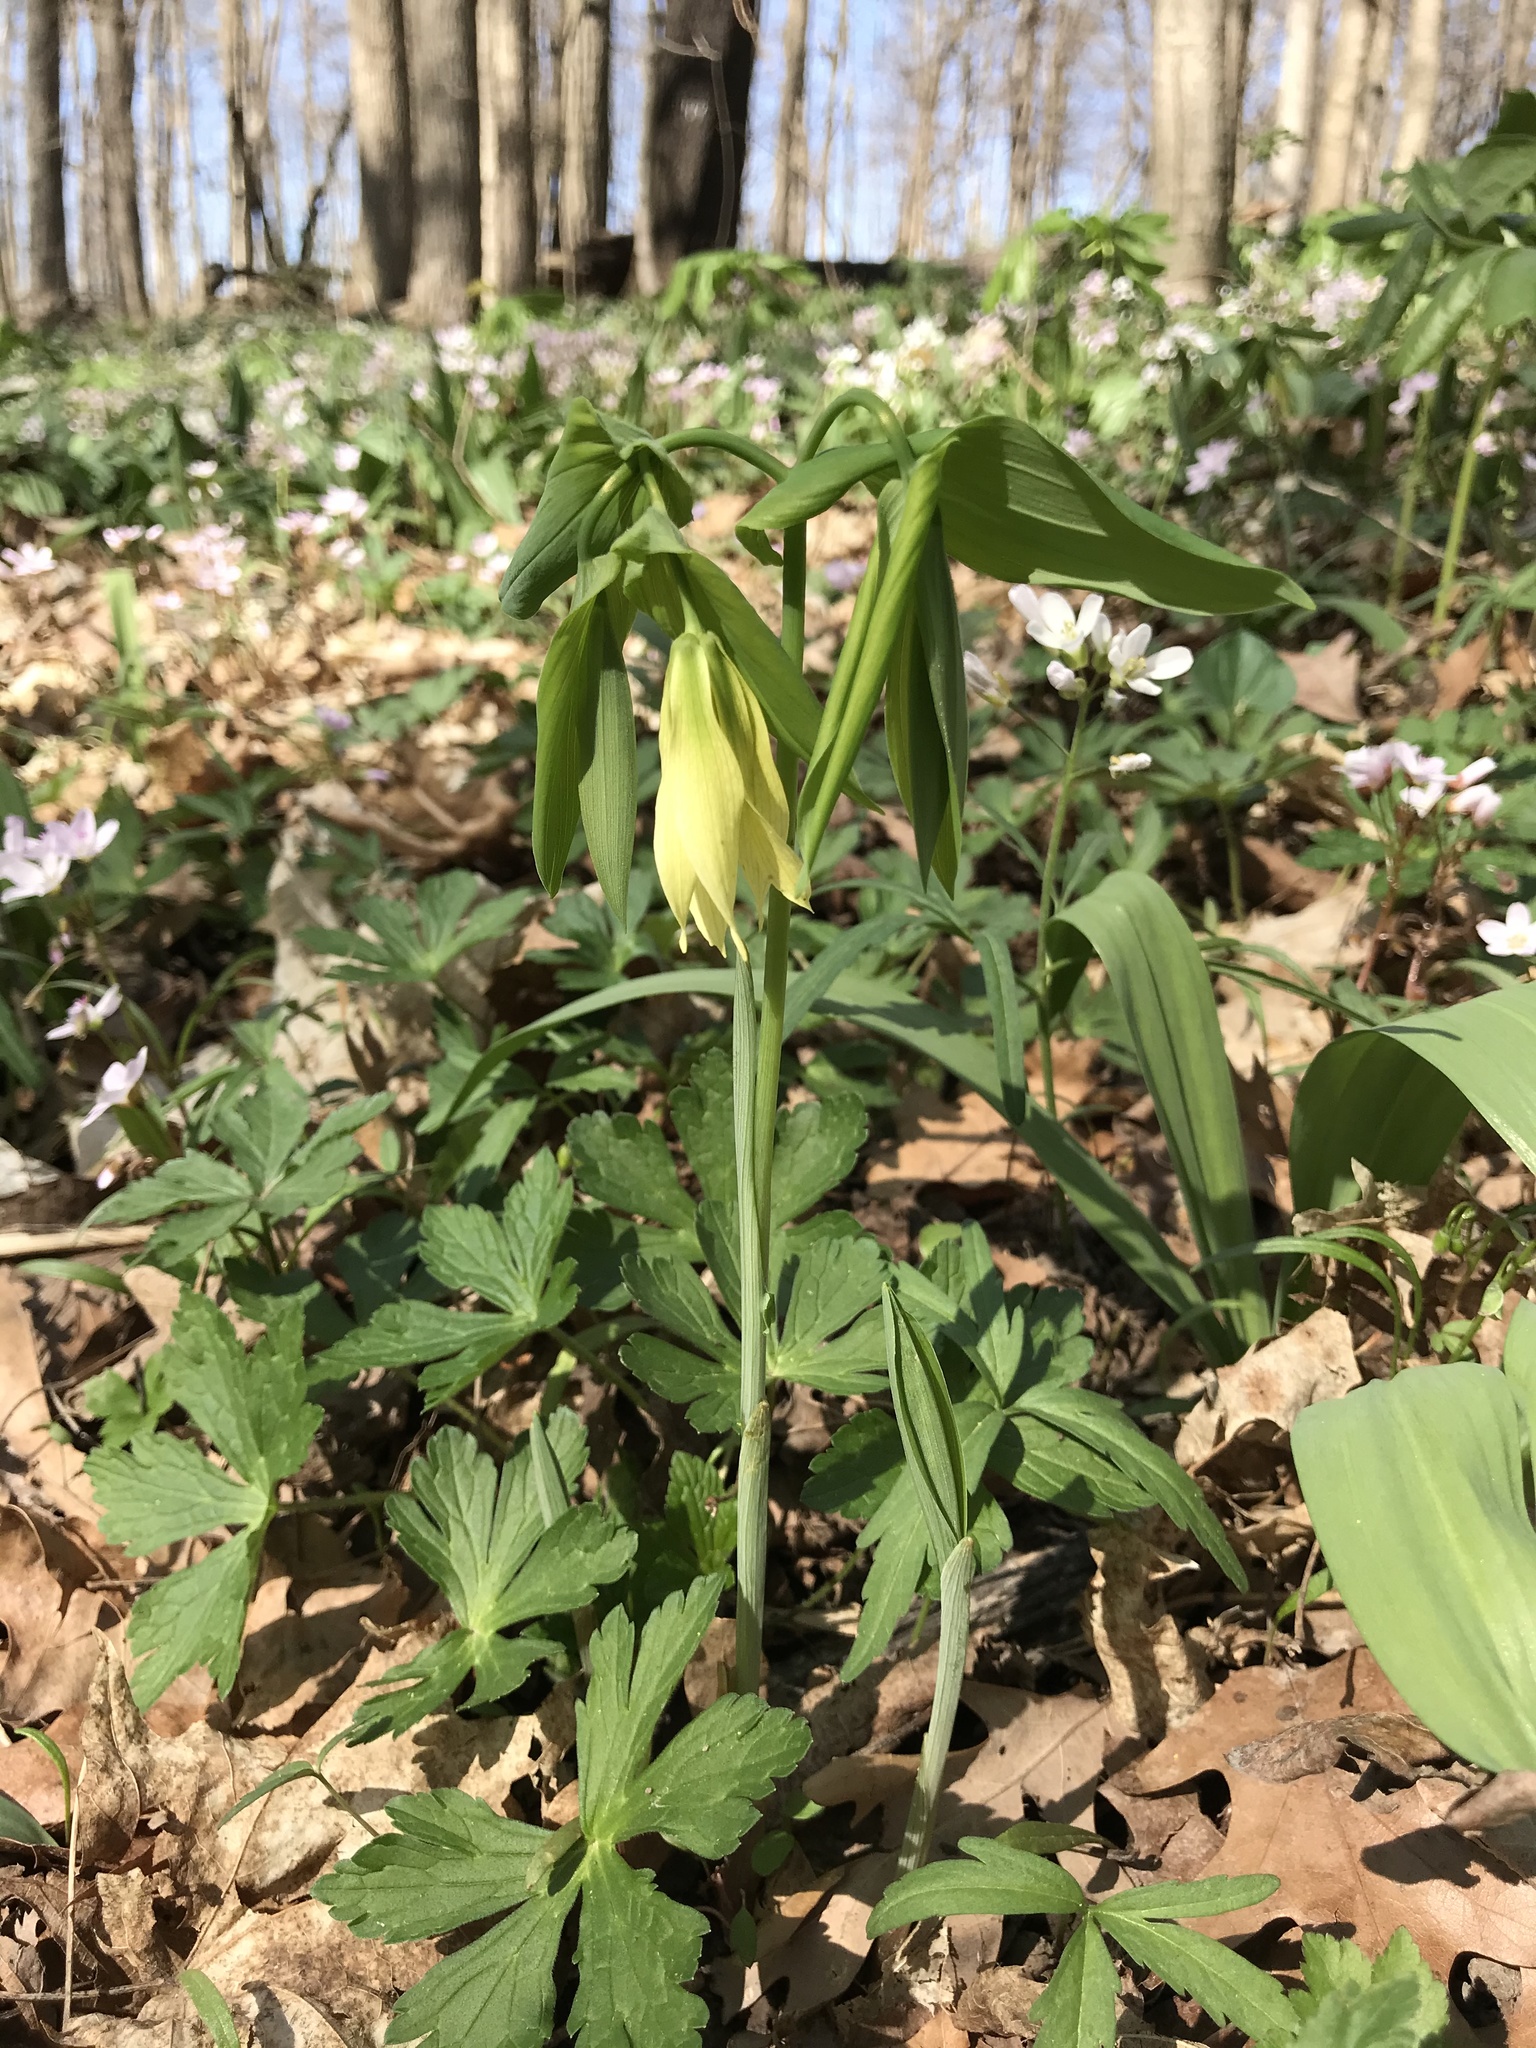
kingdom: Plantae
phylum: Tracheophyta
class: Liliopsida
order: Liliales
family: Colchicaceae
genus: Uvularia
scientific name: Uvularia grandiflora
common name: Bellwort
